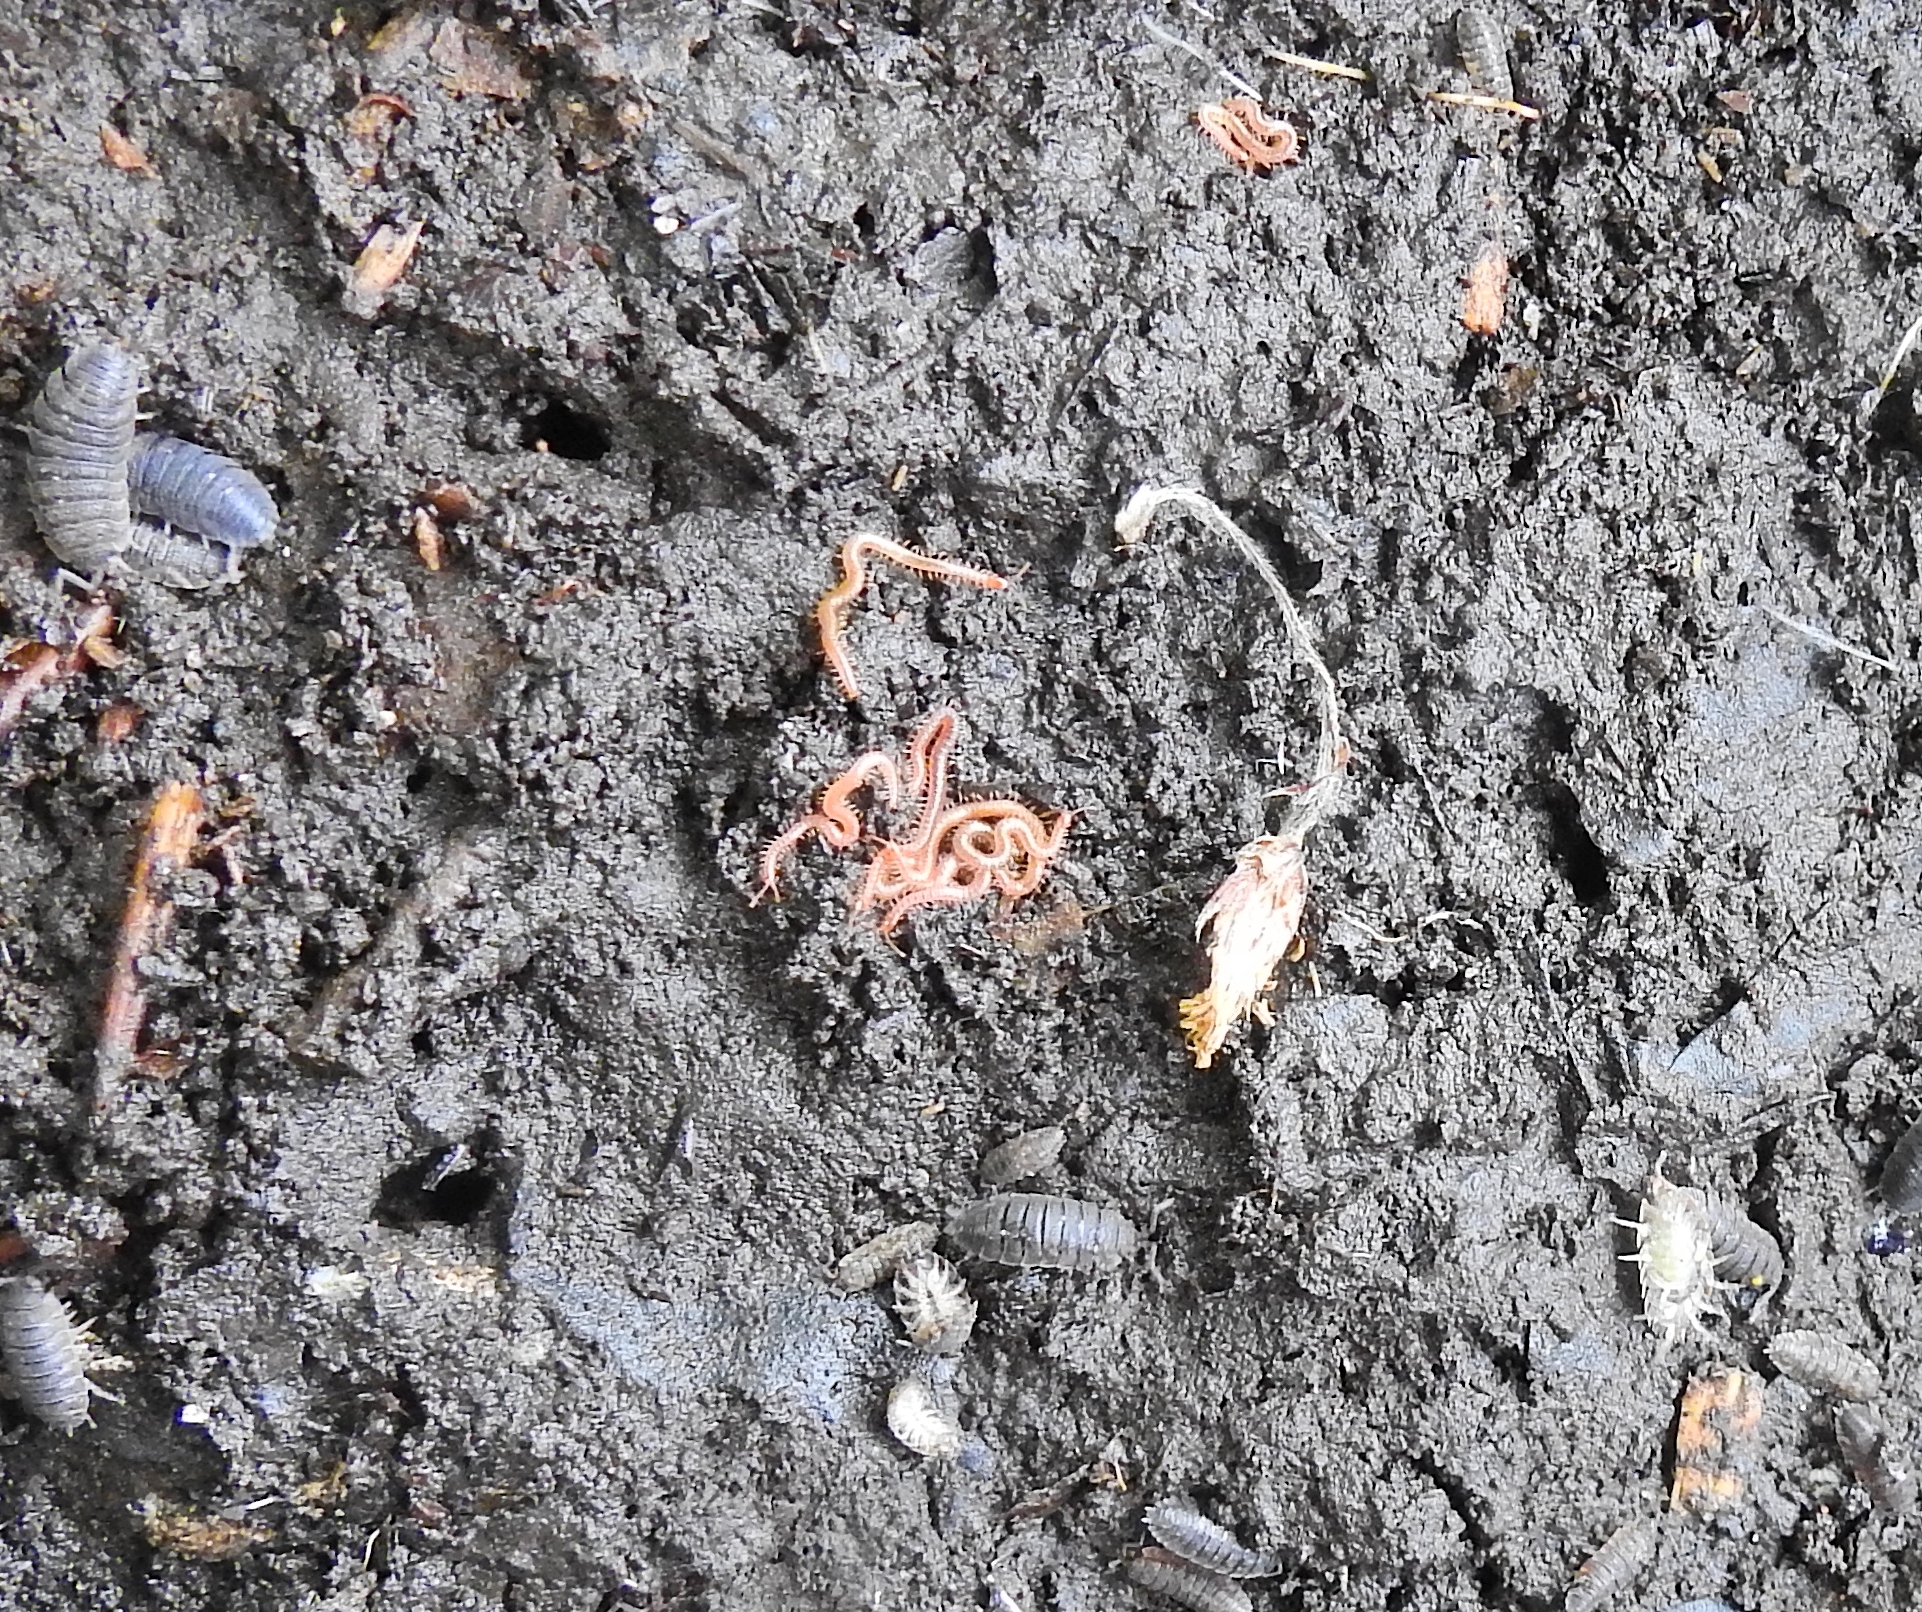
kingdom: Animalia
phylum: Arthropoda
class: Chilopoda
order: Geophilomorpha
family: Linotaeniidae
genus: Strigamia
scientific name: Strigamia maritima
